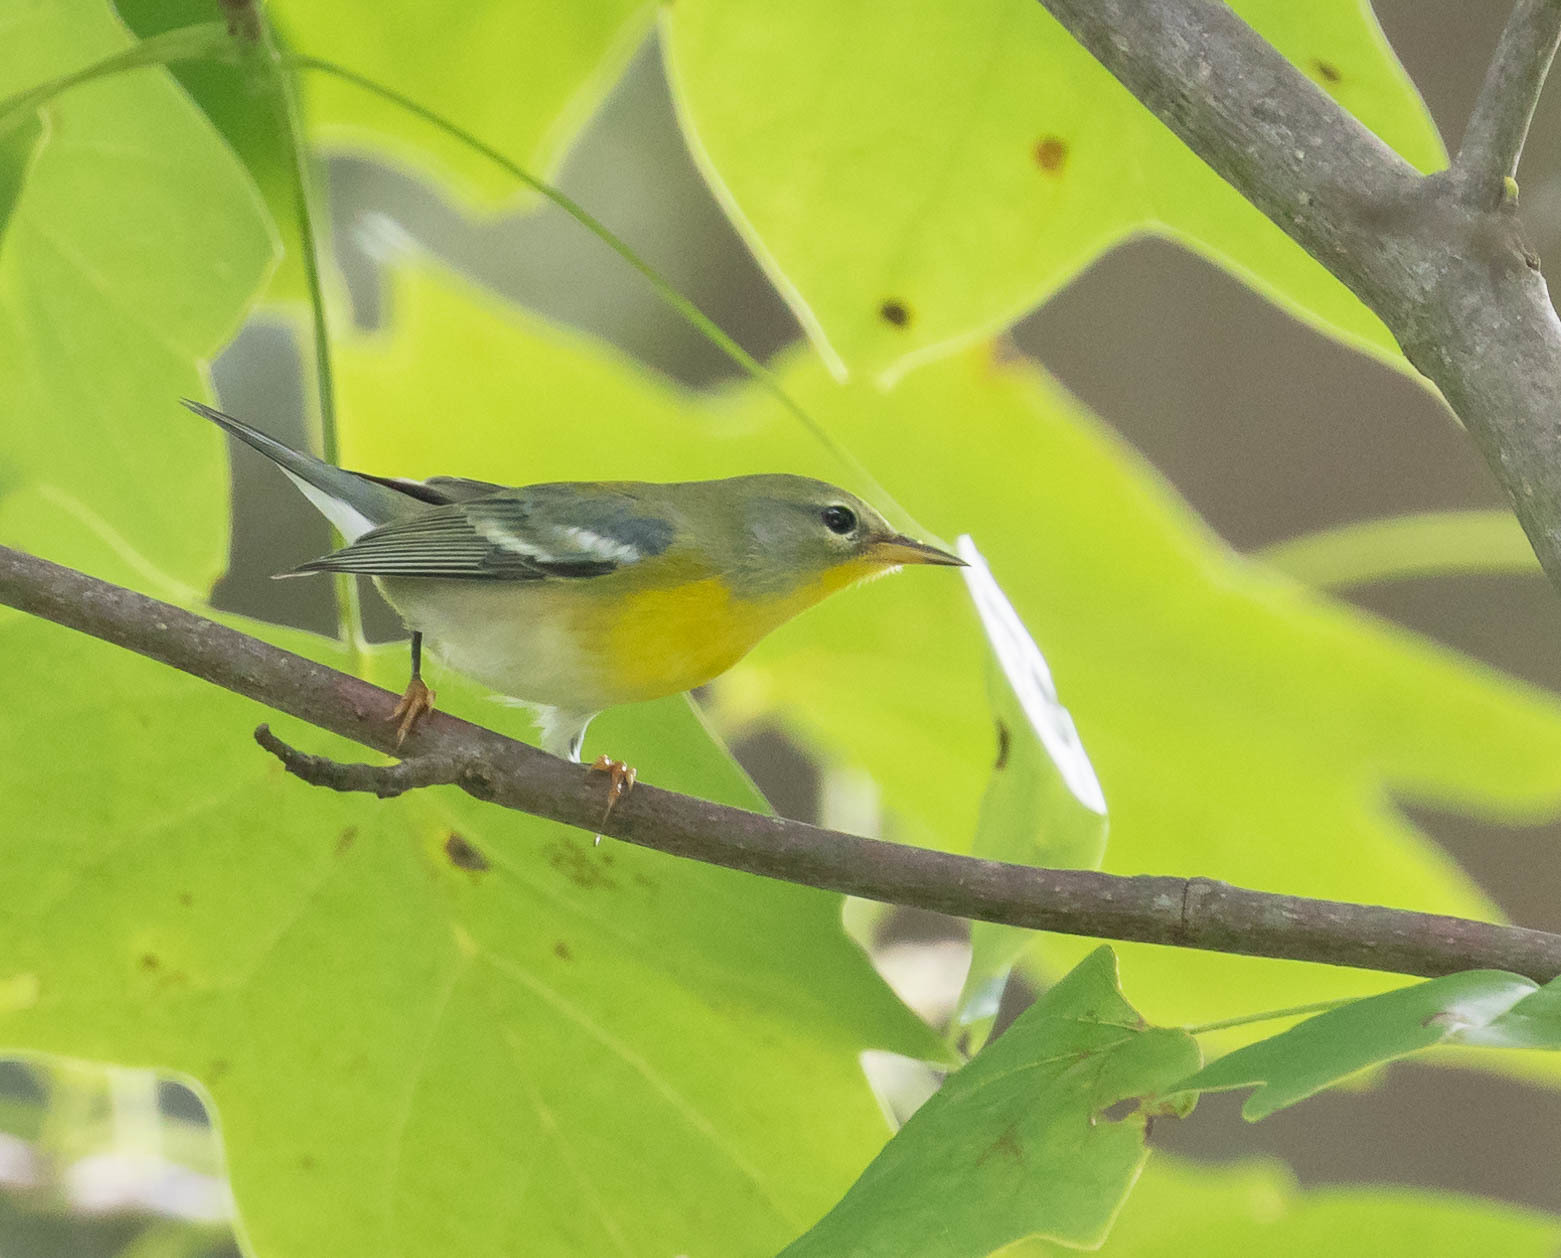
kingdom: Animalia
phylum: Chordata
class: Aves
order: Passeriformes
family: Parulidae
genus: Setophaga
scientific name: Setophaga americana
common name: Northern parula
